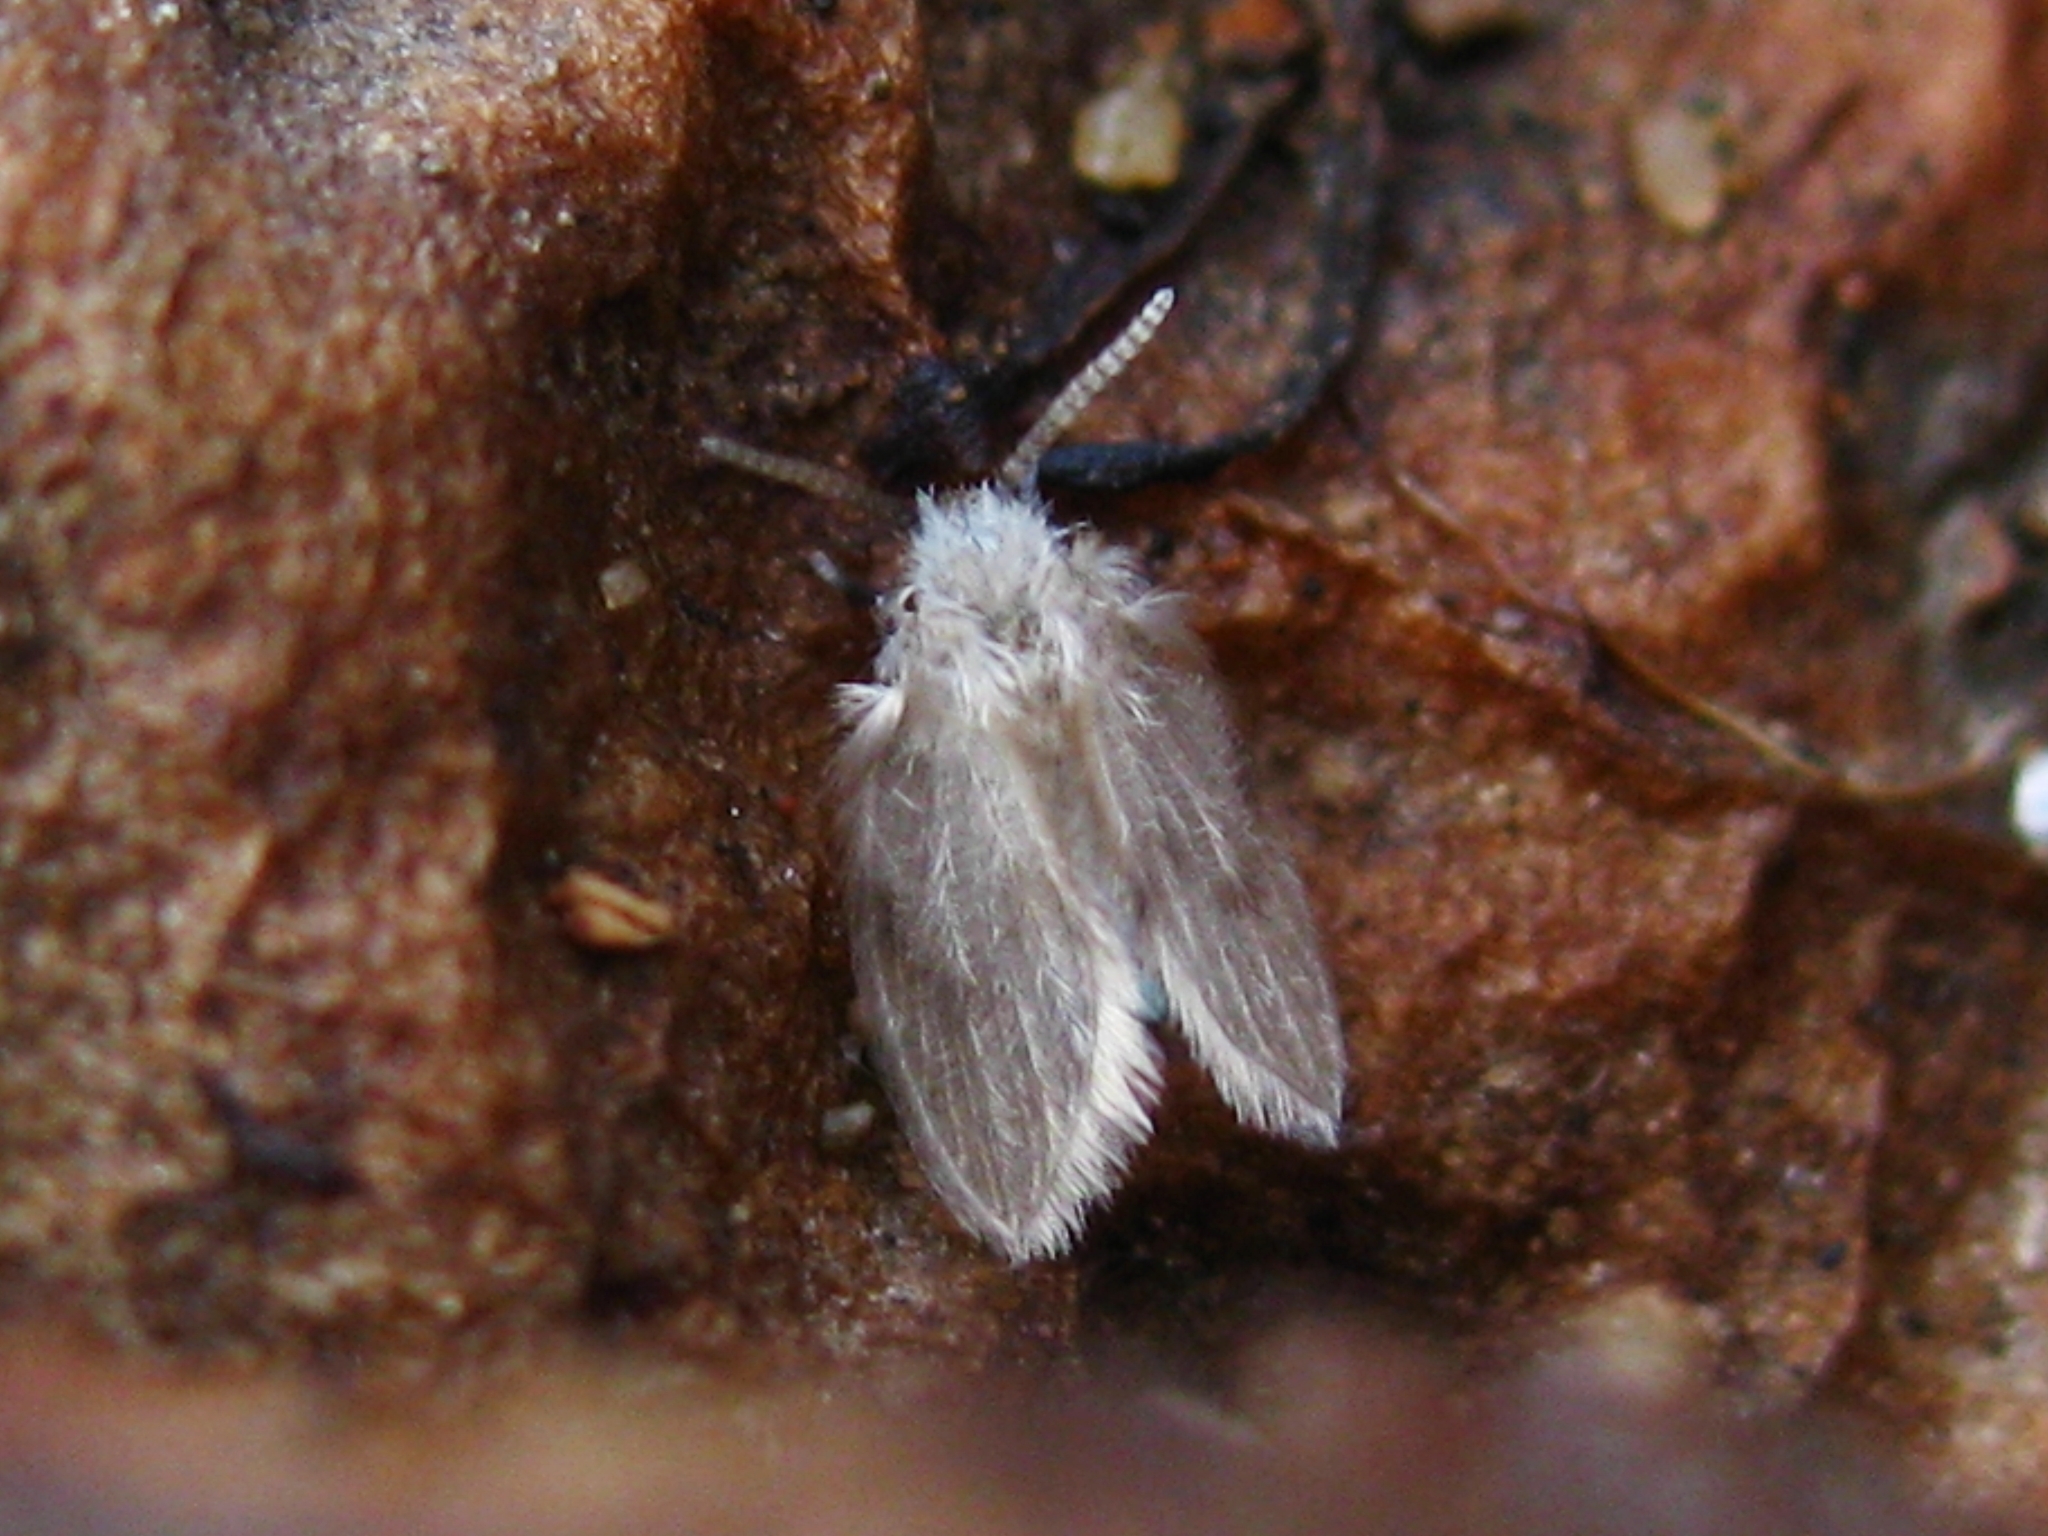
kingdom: Animalia
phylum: Arthropoda
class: Insecta
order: Diptera
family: Psychodidae
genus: Psychoda
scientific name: Psychoda sigma
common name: Moth fly
